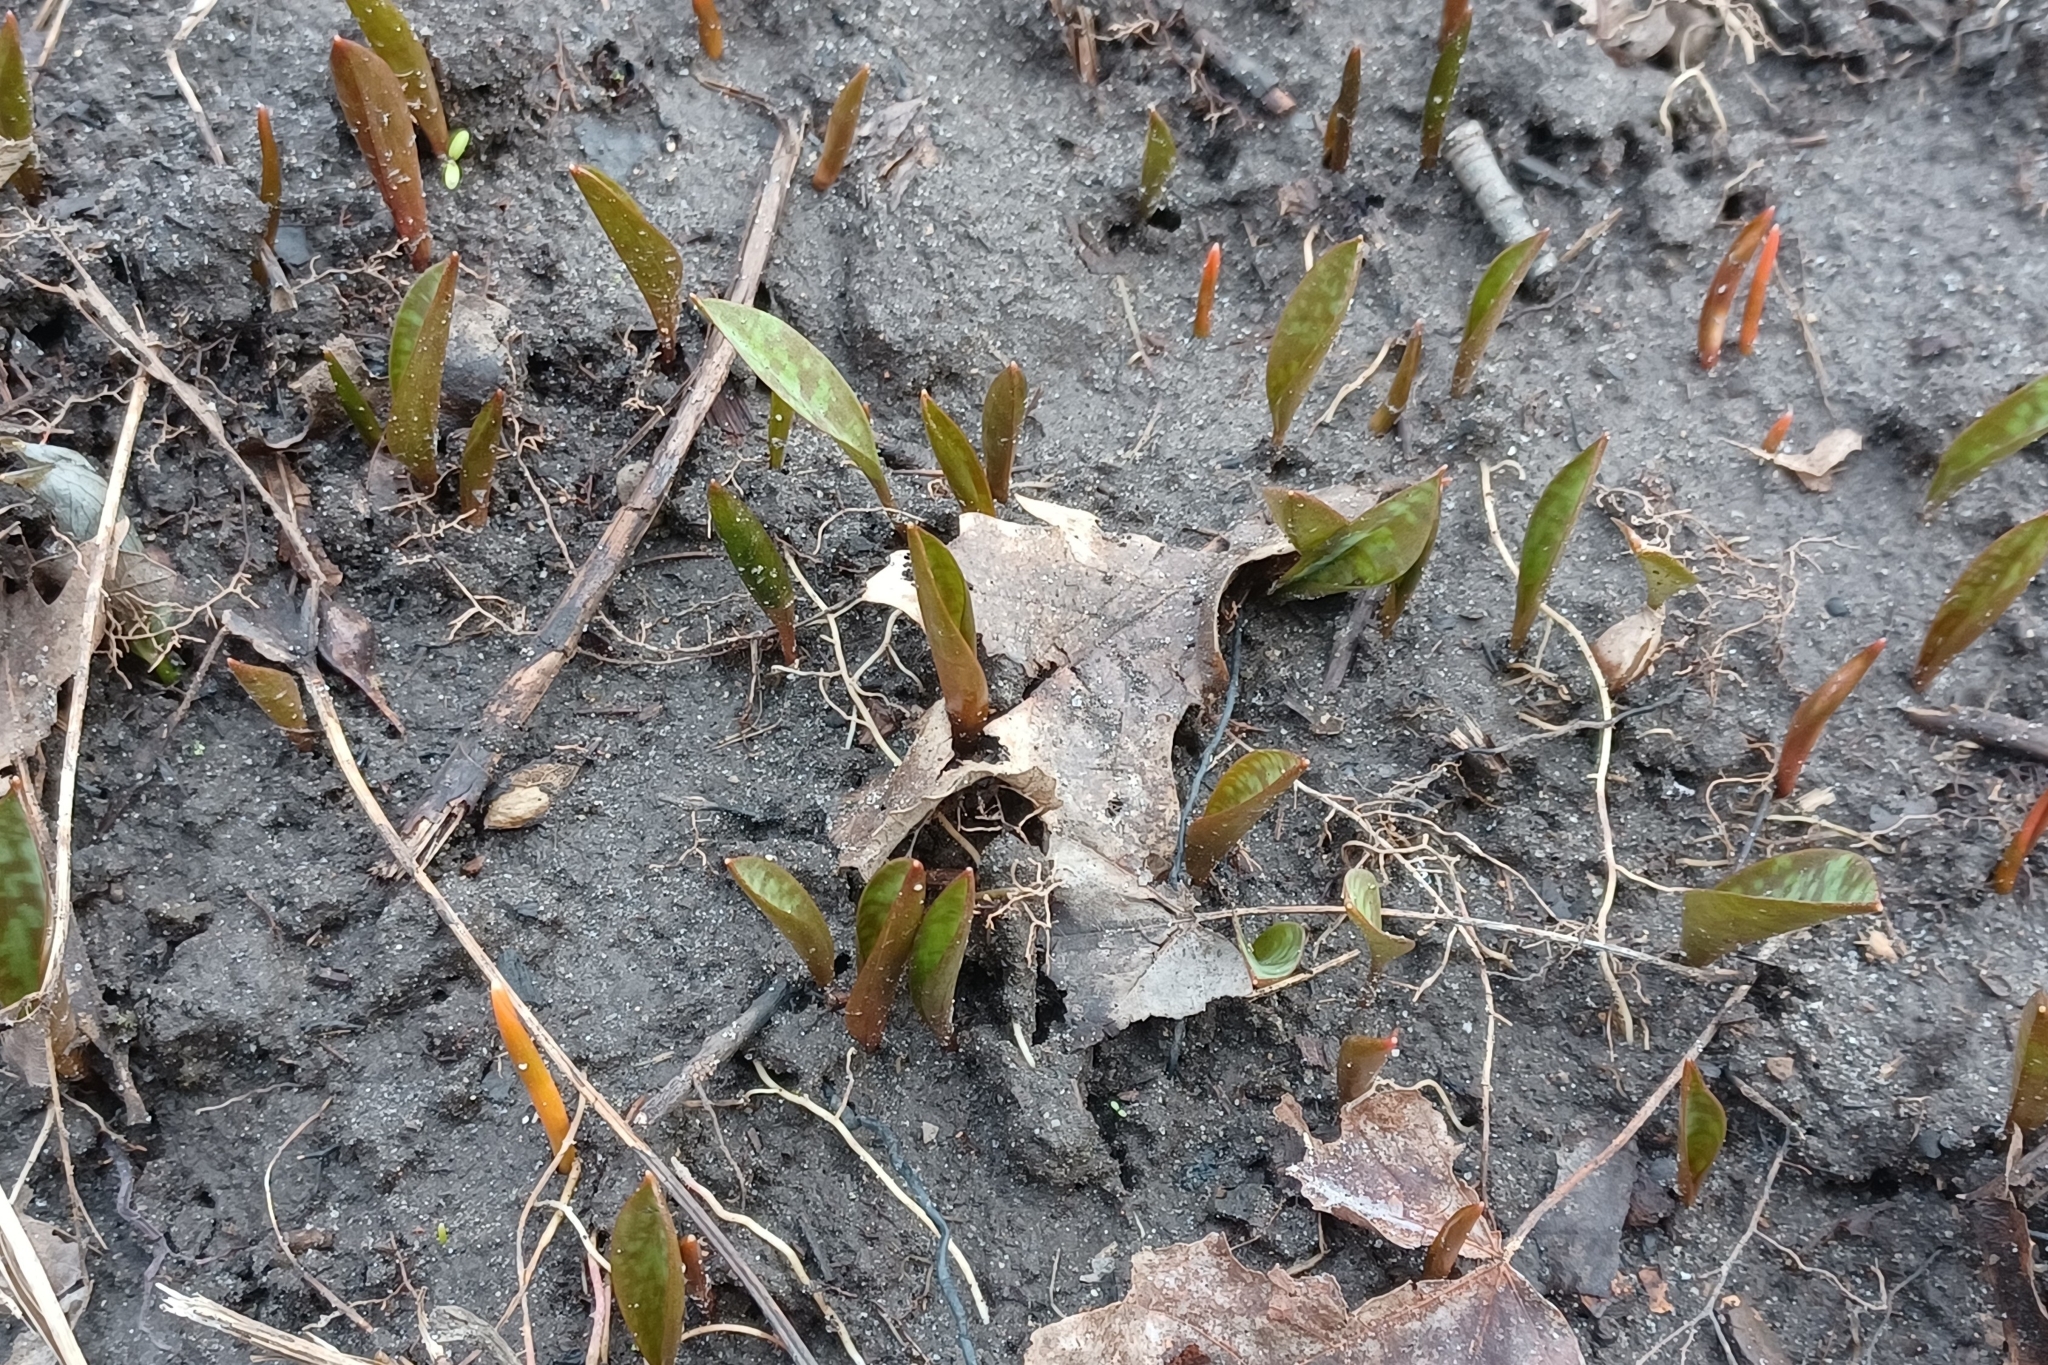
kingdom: Plantae
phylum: Tracheophyta
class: Liliopsida
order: Liliales
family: Liliaceae
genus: Erythronium
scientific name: Erythronium
